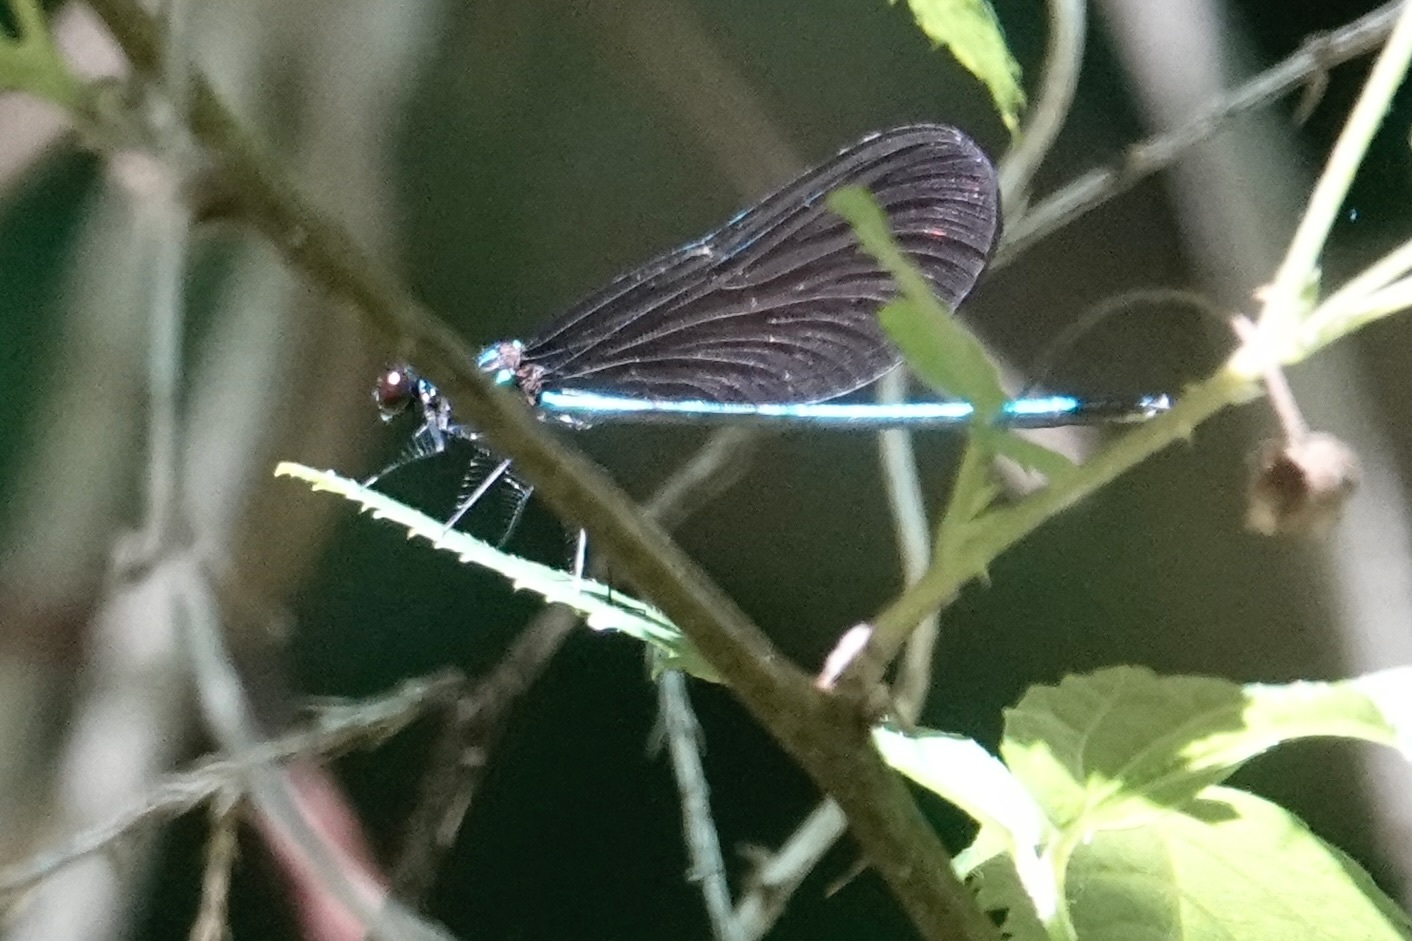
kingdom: Animalia
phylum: Arthropoda
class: Insecta
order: Odonata
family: Calopterygidae
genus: Calopteryx
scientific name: Calopteryx maculata
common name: Ebony jewelwing
